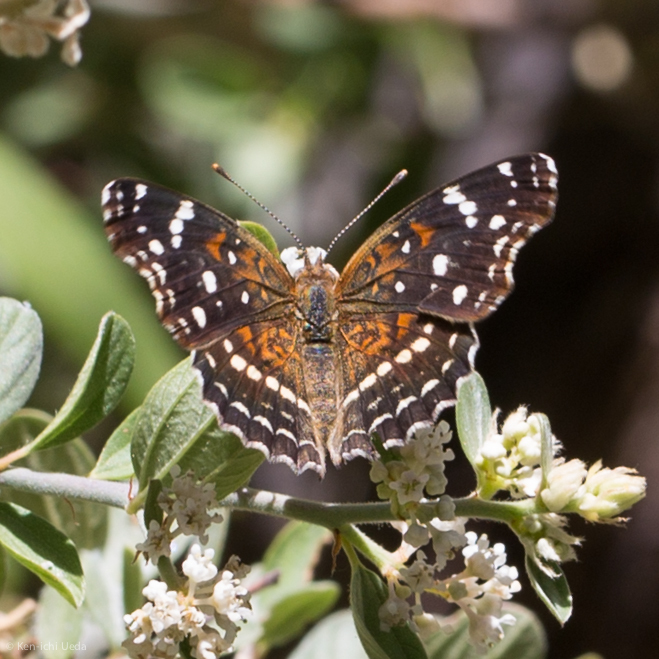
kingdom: Animalia
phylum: Arthropoda
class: Insecta
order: Lepidoptera
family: Nymphalidae
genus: Anthanassa
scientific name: Anthanassa texana
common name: Texan crescent
